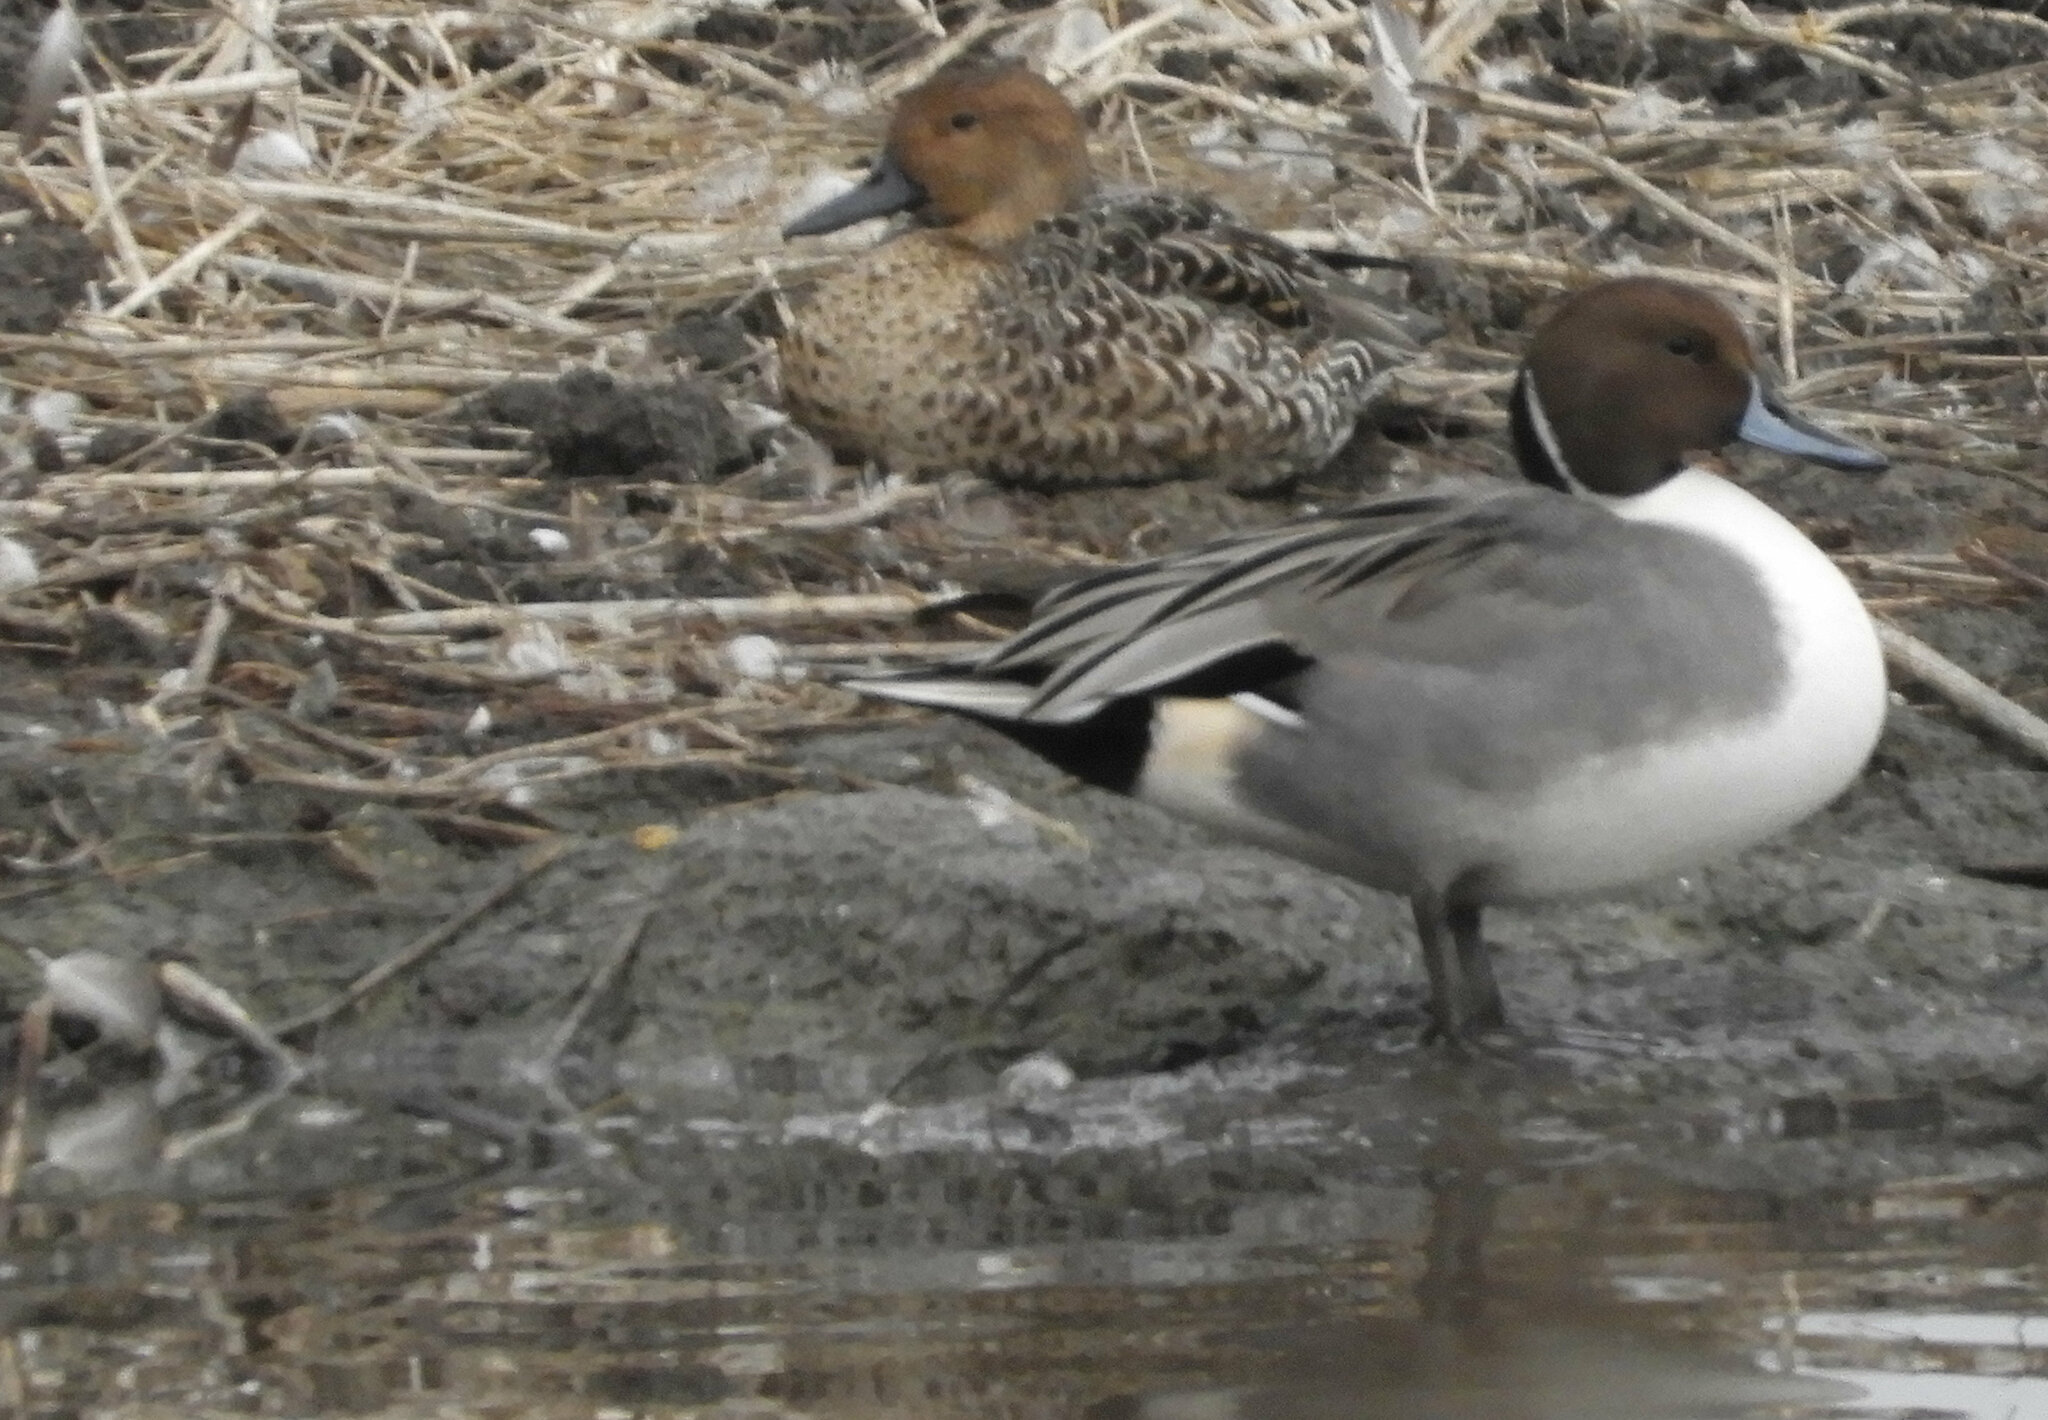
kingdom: Animalia
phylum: Chordata
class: Aves
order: Anseriformes
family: Anatidae
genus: Anas
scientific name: Anas acuta
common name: Northern pintail
